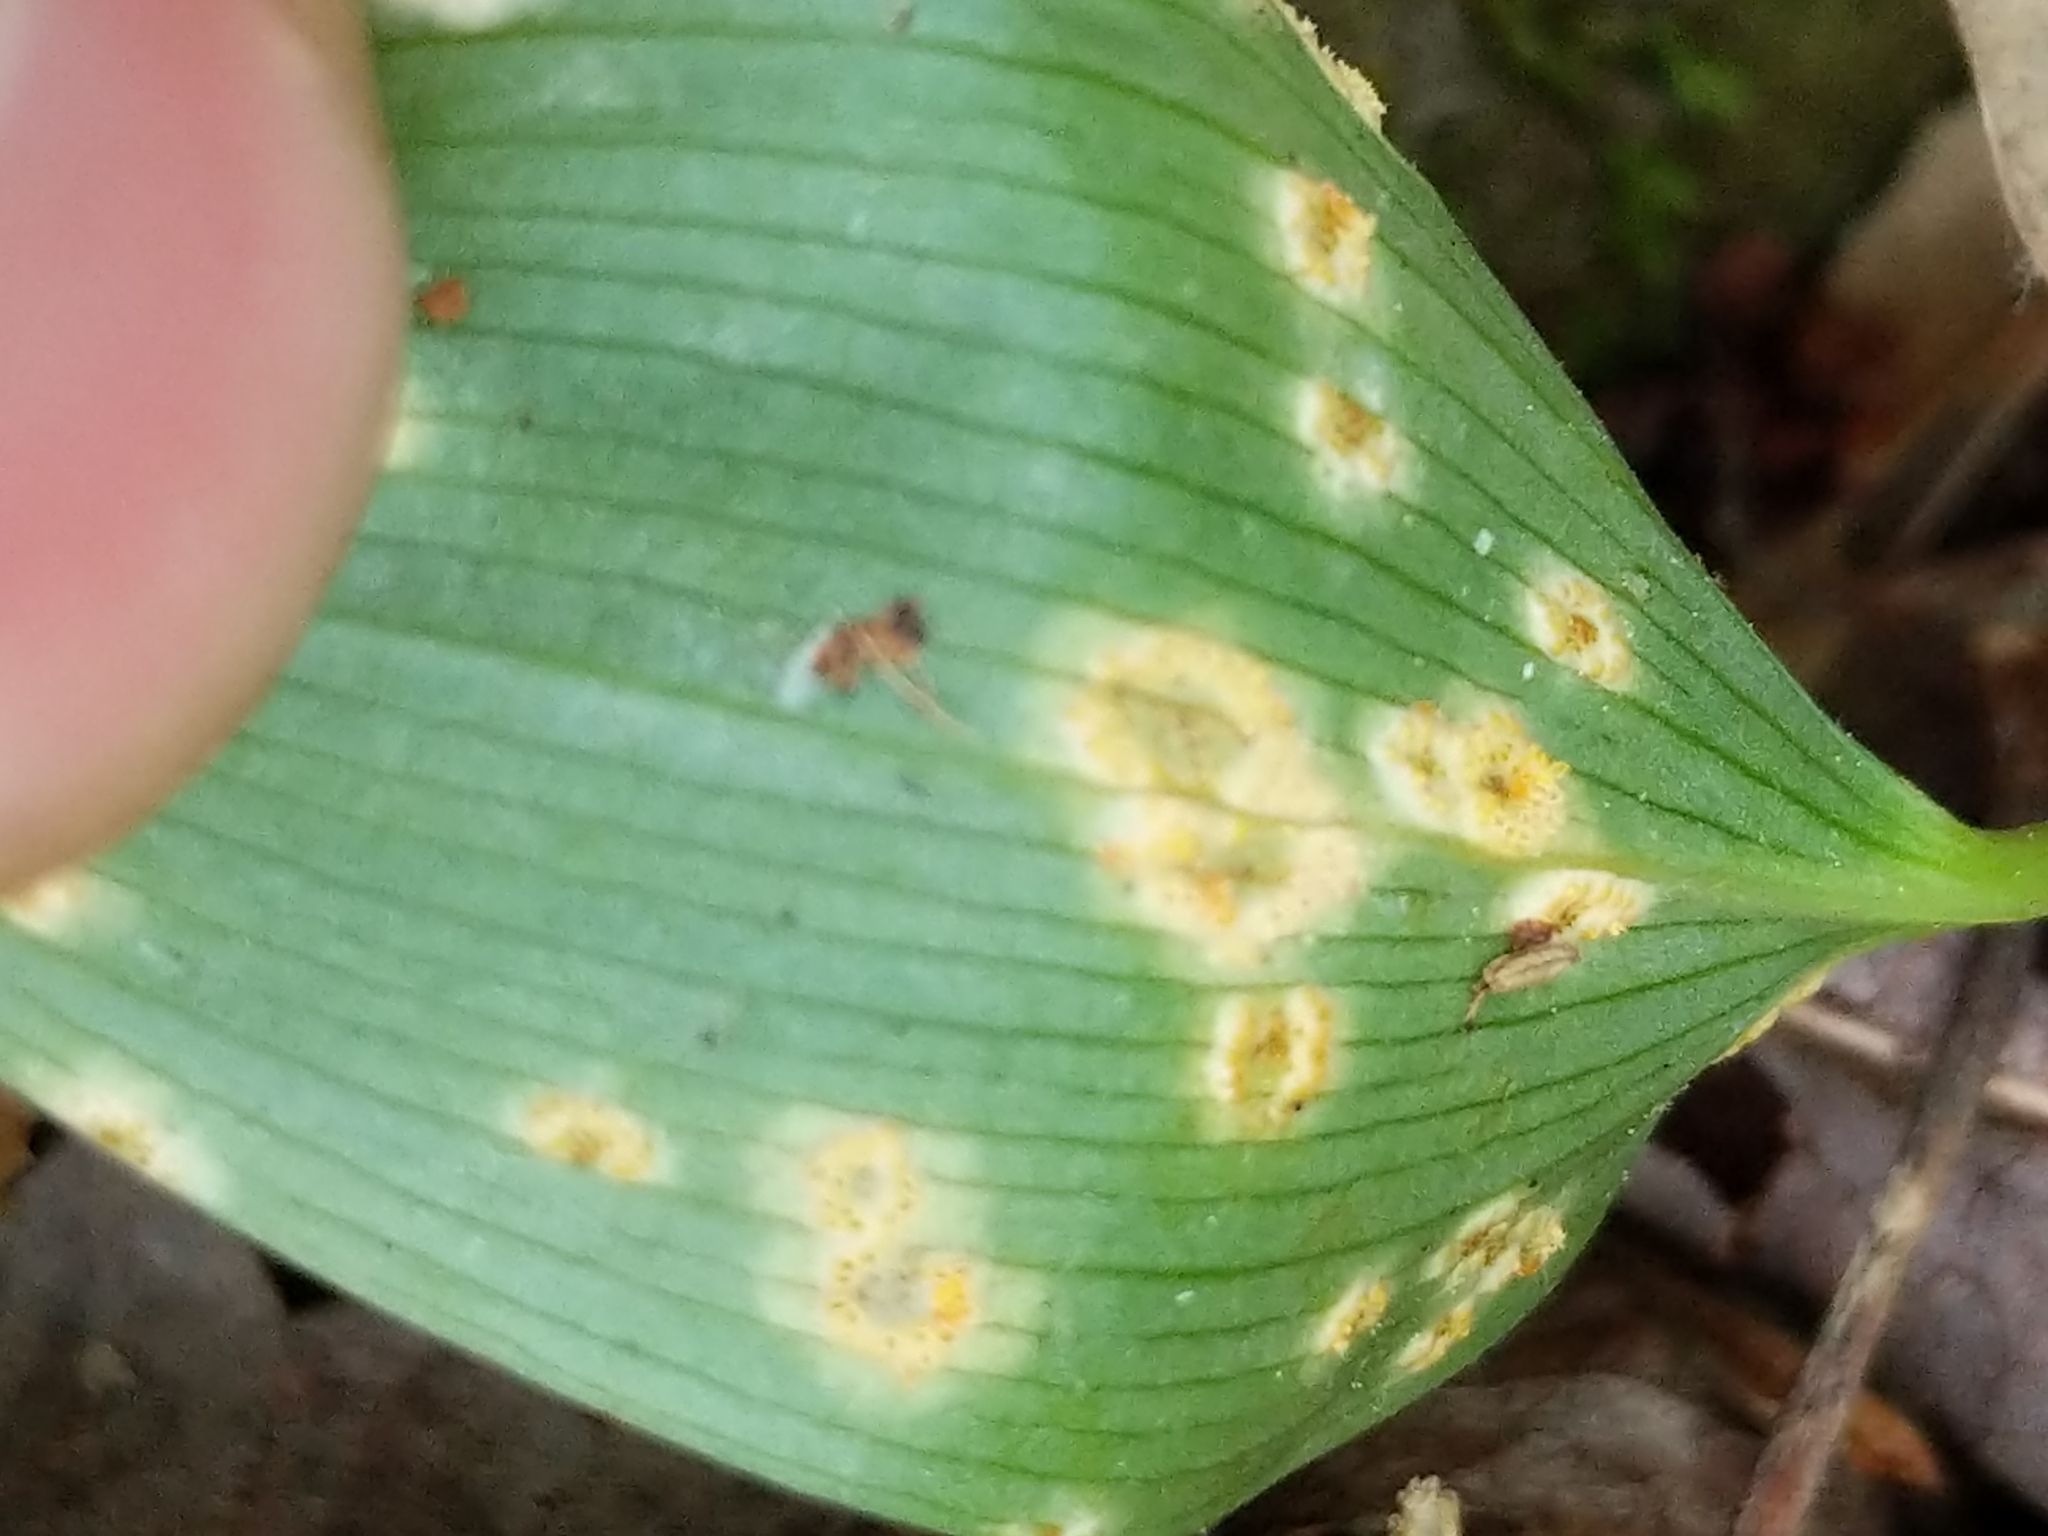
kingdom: Fungi
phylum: Basidiomycota
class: Pucciniomycetes
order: Pucciniales
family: Pucciniaceae
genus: Puccinia
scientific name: Puccinia sessilis
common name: Arum rust
